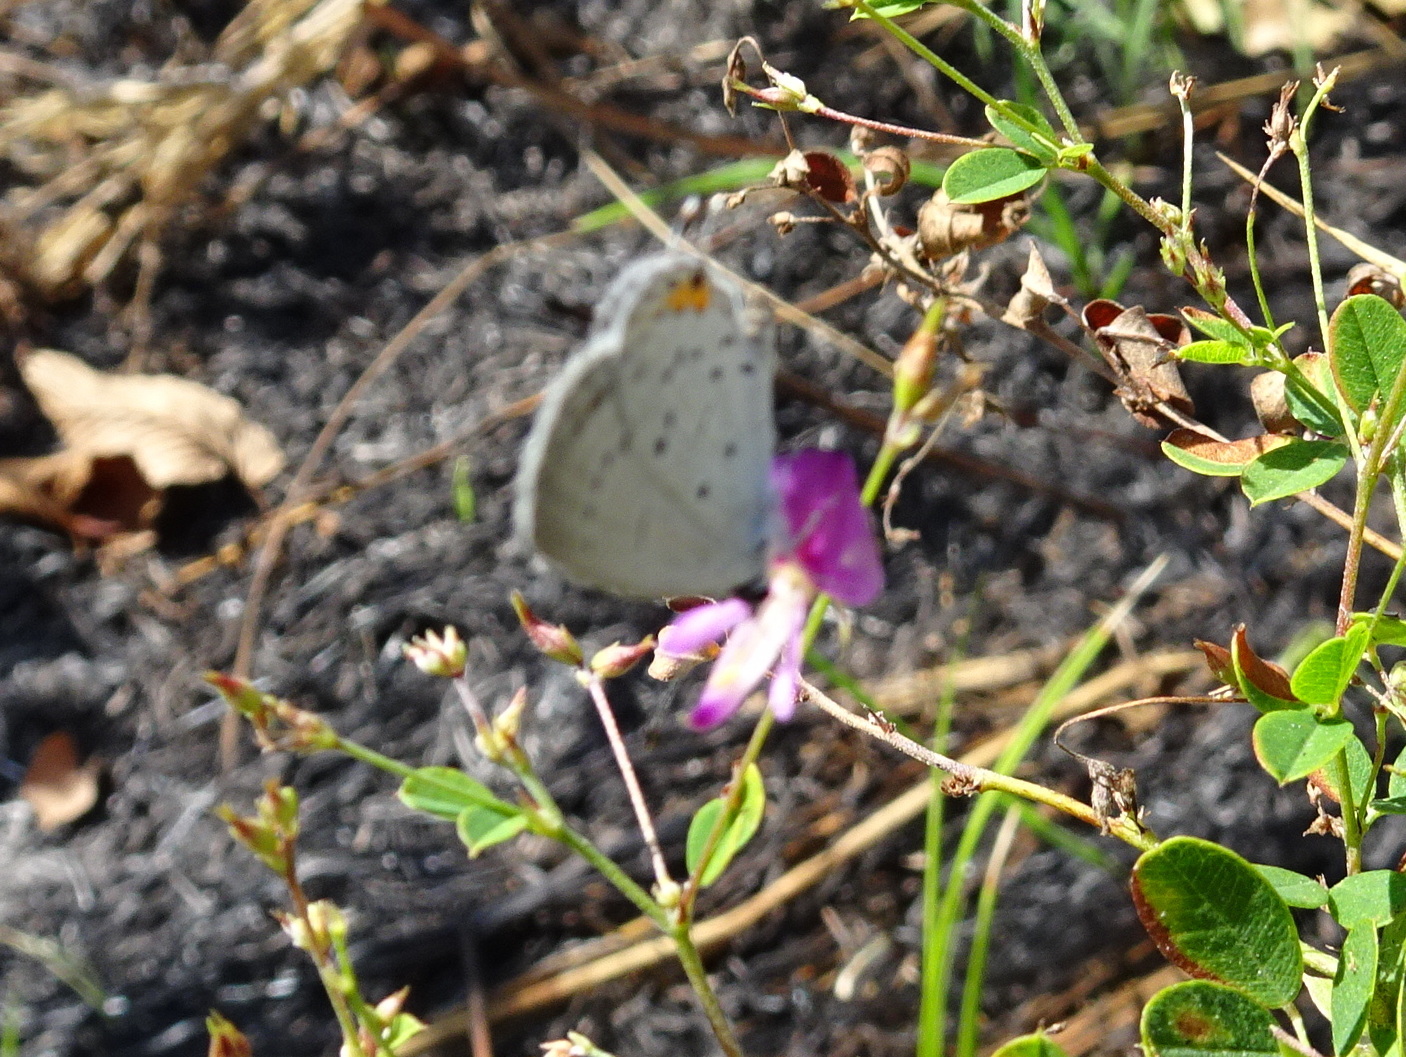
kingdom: Animalia
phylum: Arthropoda
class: Insecta
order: Lepidoptera
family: Lycaenidae
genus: Elkalyce
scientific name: Elkalyce comyntas
